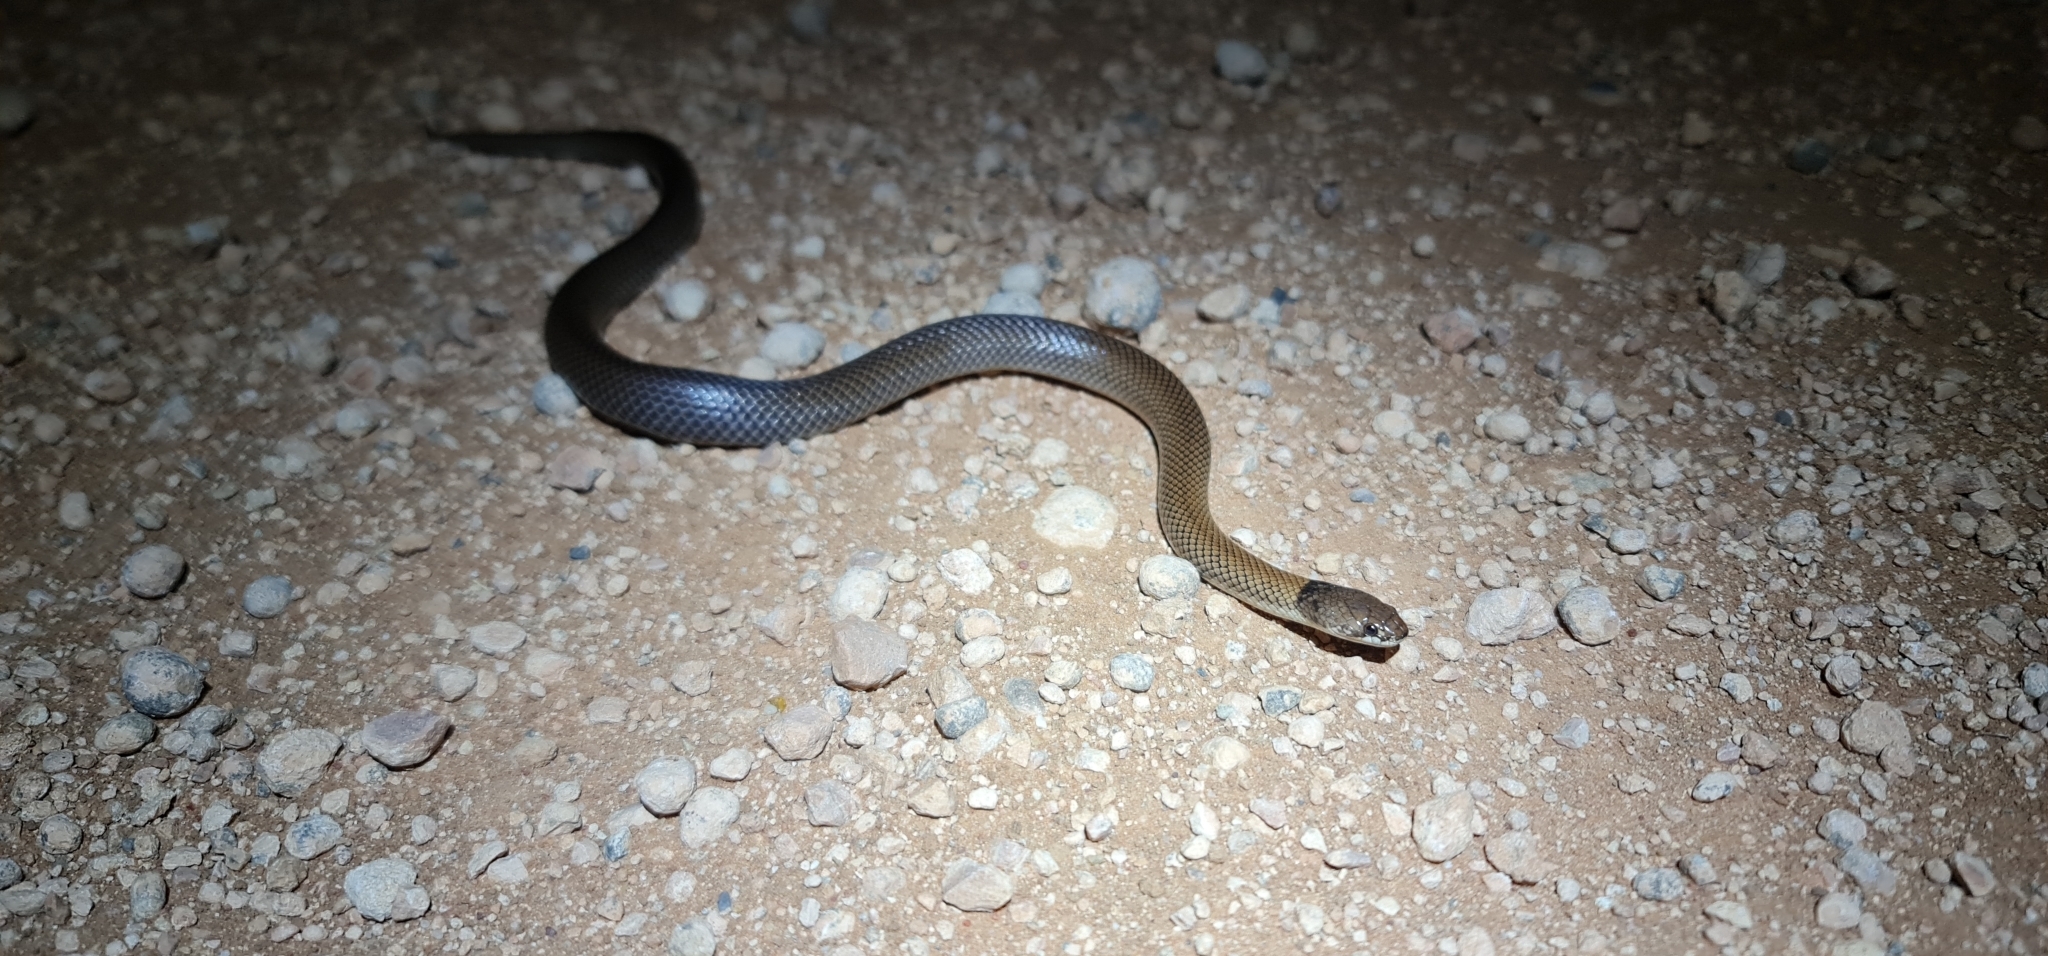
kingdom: Animalia
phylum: Chordata
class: Squamata
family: Elapidae
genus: Suta
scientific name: Suta suta
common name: Curl snake
